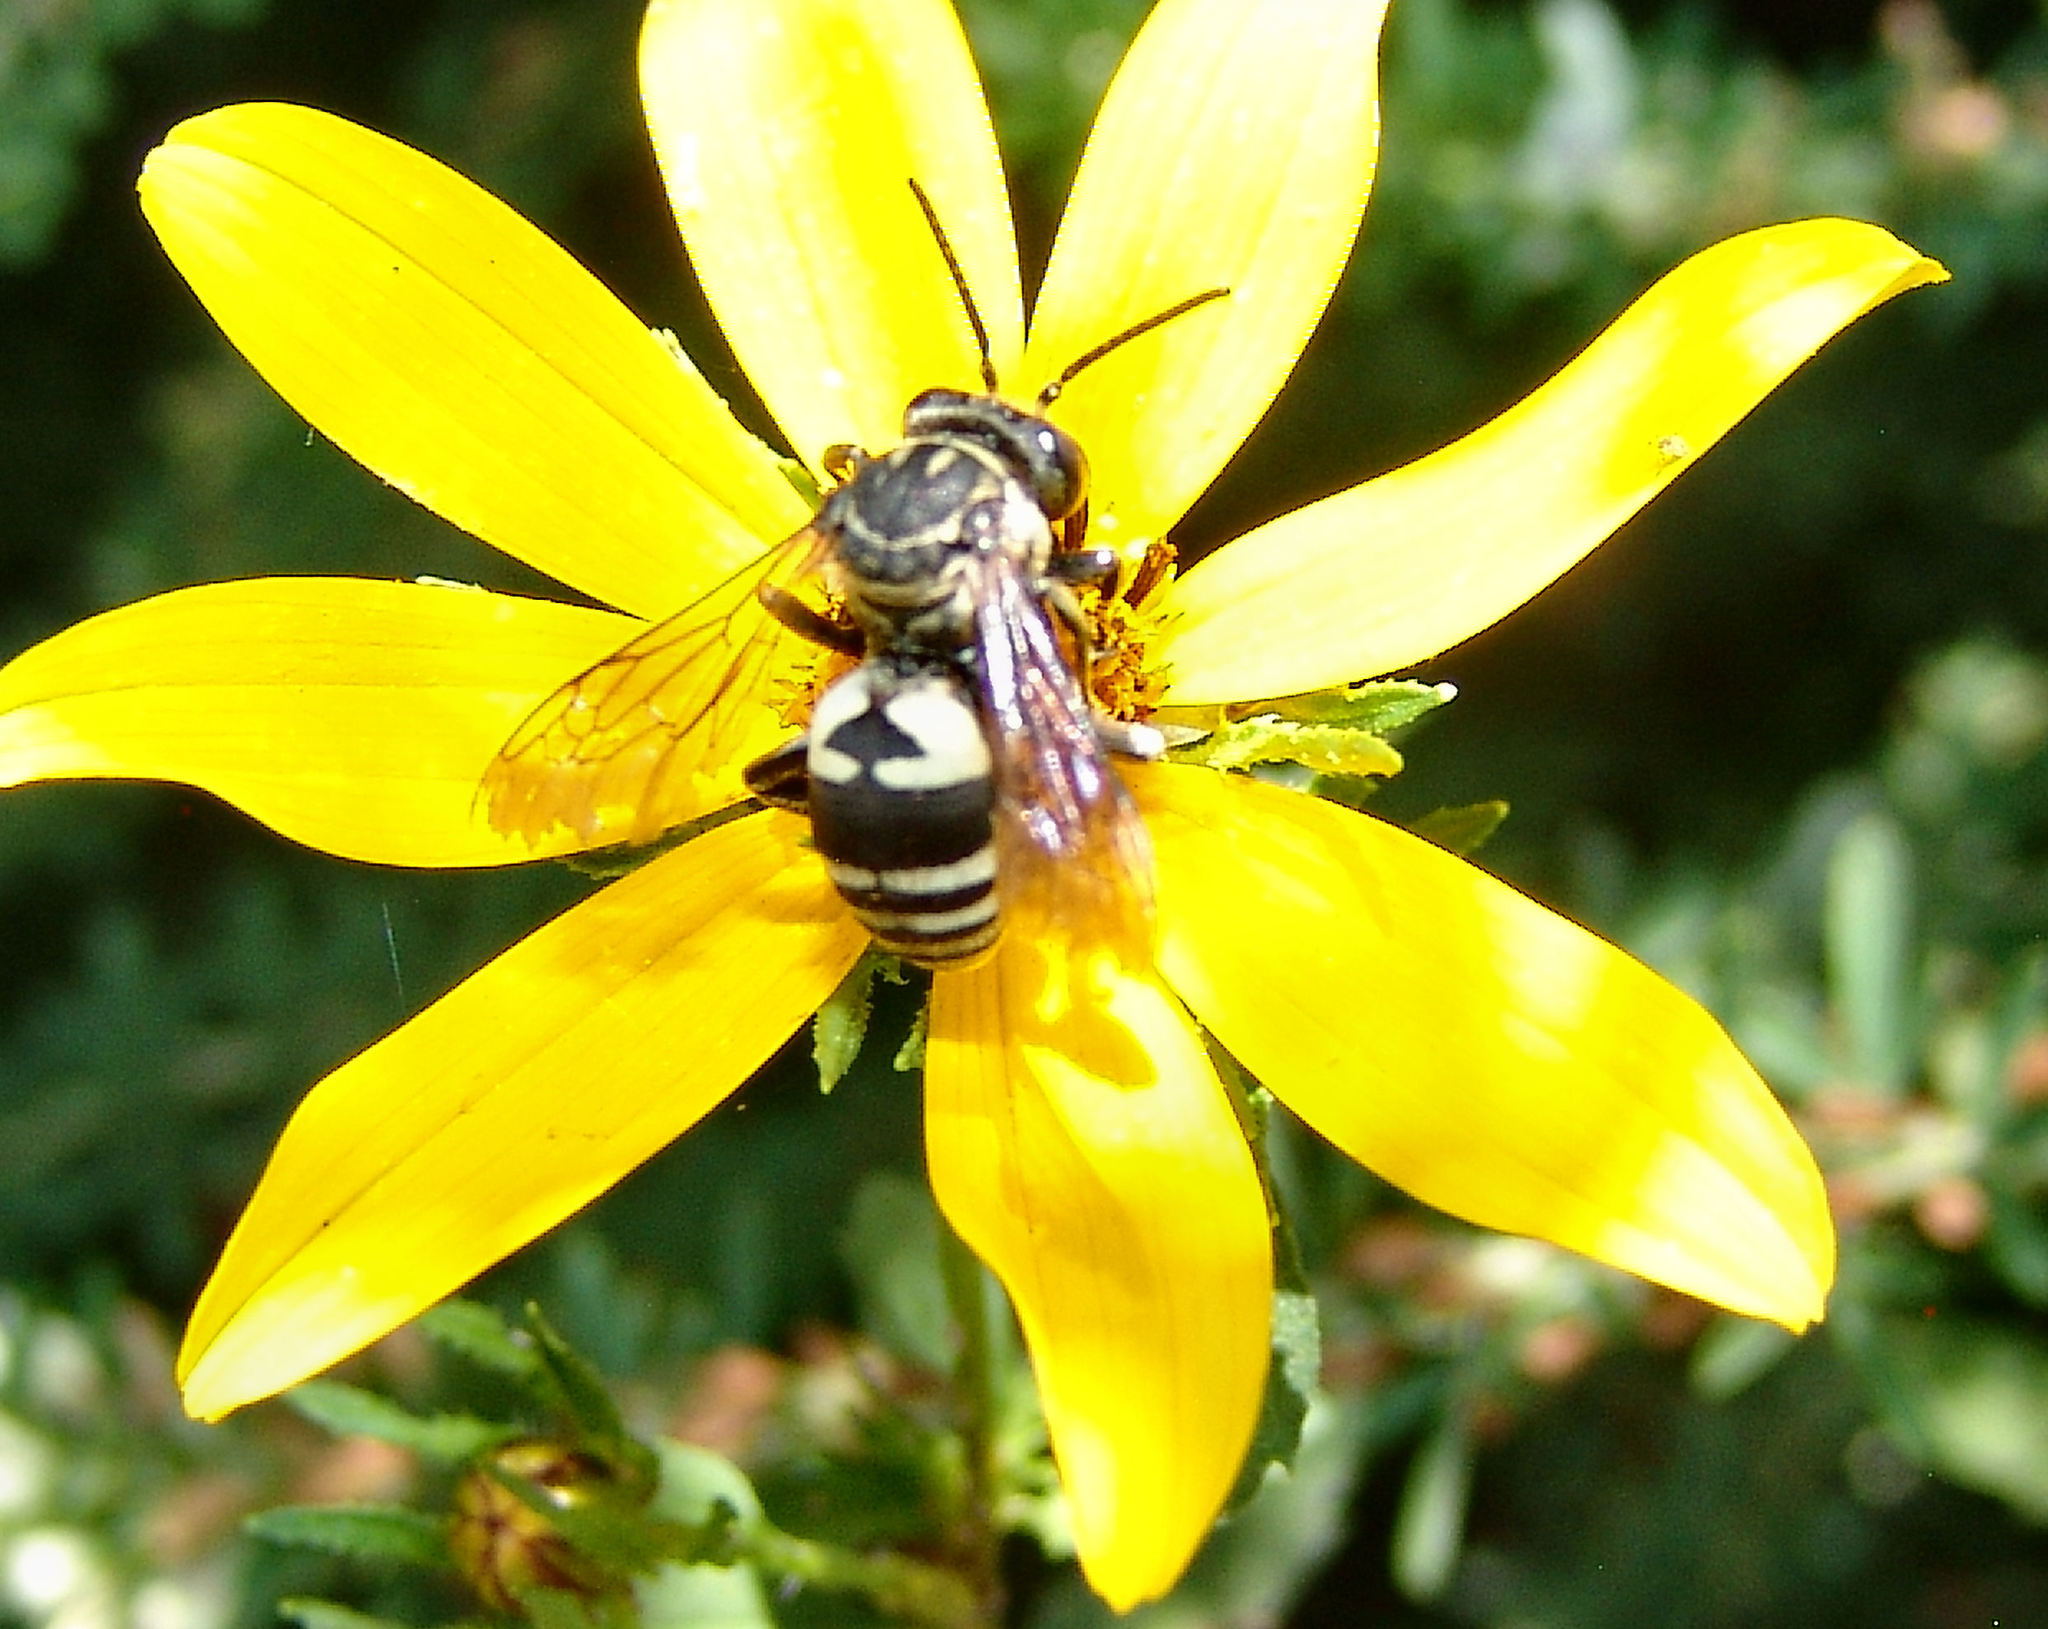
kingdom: Animalia
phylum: Arthropoda
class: Insecta
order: Hymenoptera
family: Apidae
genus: Triepeolus
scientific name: Triepeolus lunatus
